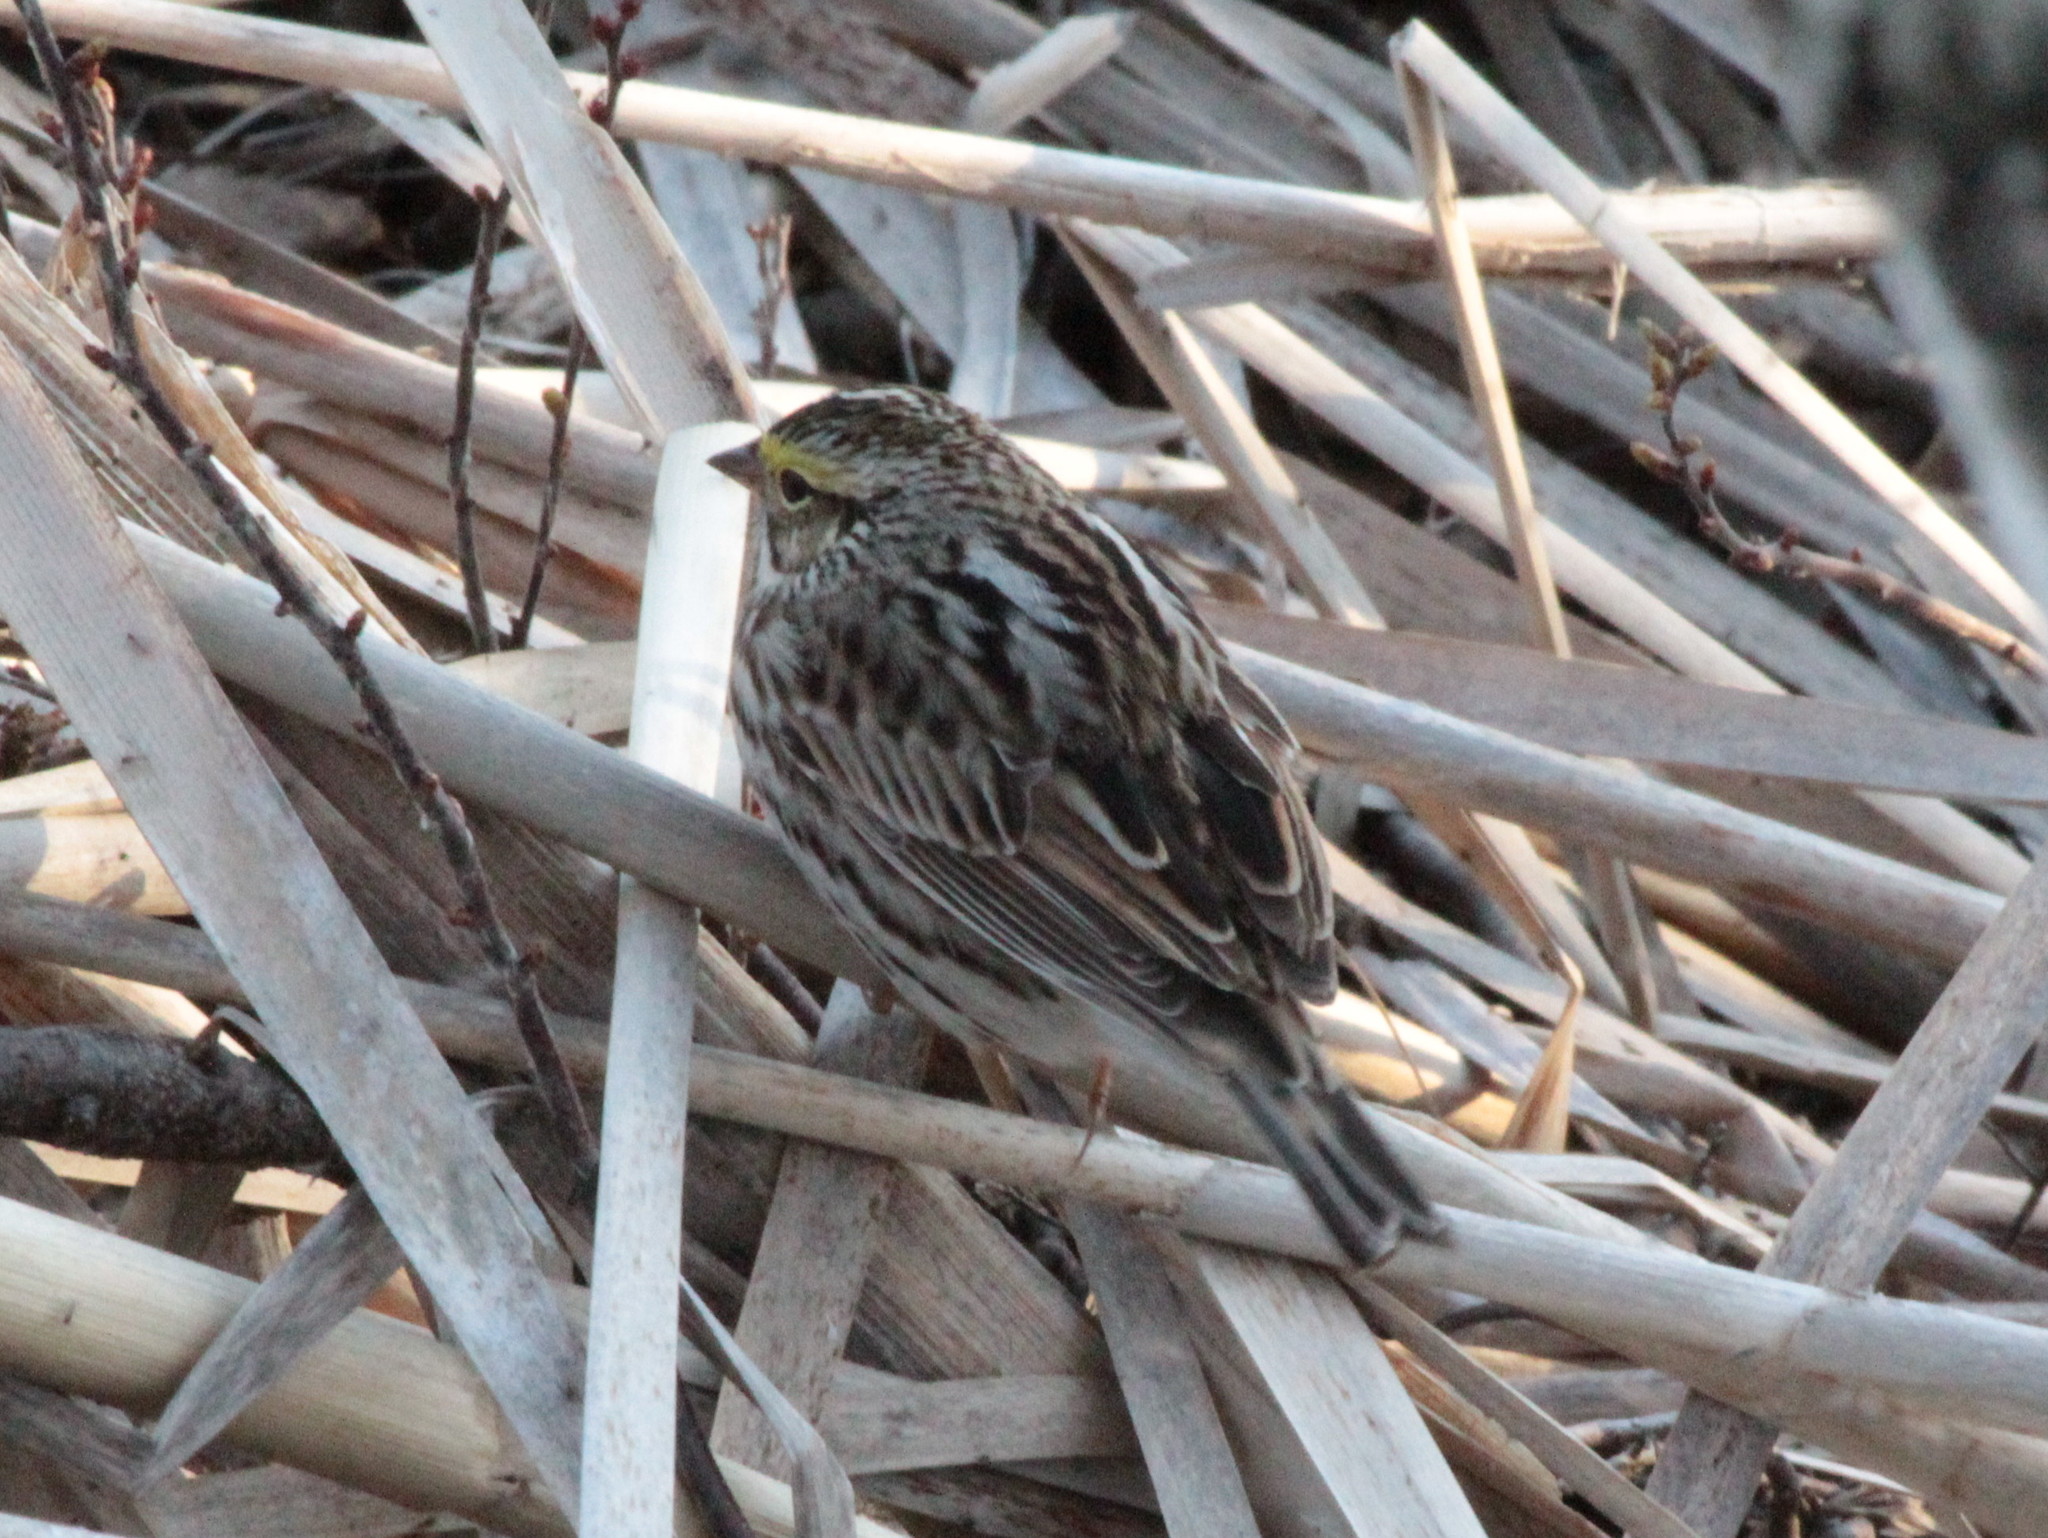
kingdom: Animalia
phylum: Chordata
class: Aves
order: Passeriformes
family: Passerellidae
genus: Passerculus
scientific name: Passerculus sandwichensis
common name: Savannah sparrow
